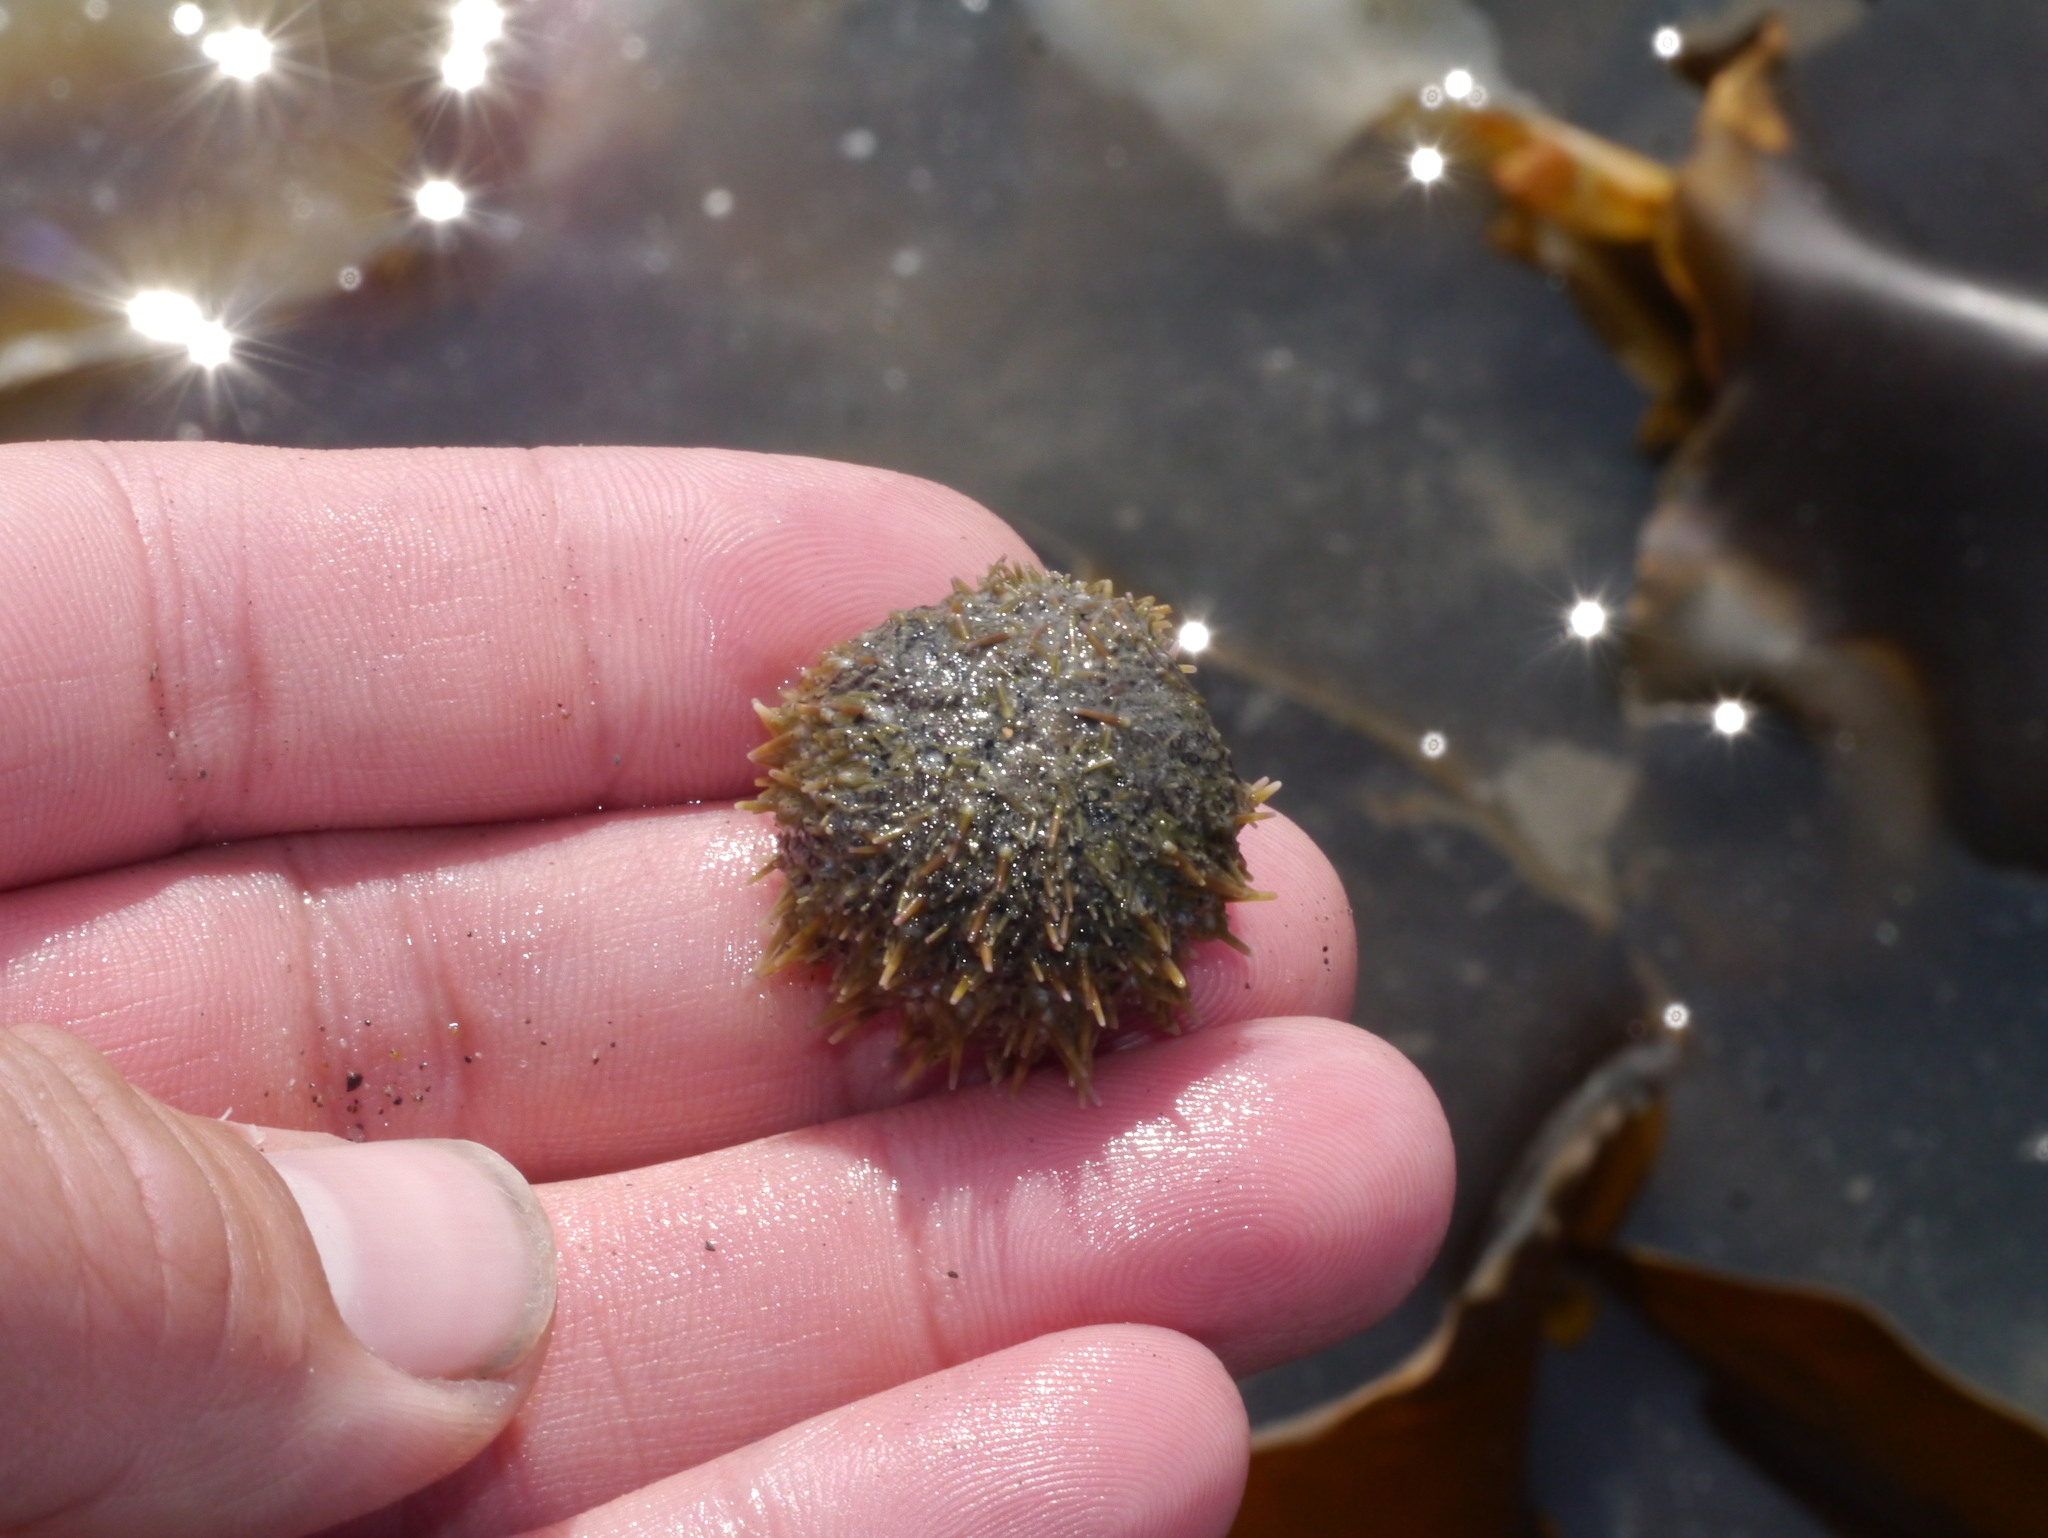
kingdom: Animalia
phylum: Echinodermata
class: Echinoidea
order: Camarodonta
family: Strongylocentrotidae
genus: Strongylocentrotus
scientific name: Strongylocentrotus droebachiensis
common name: Northern sea urchin
